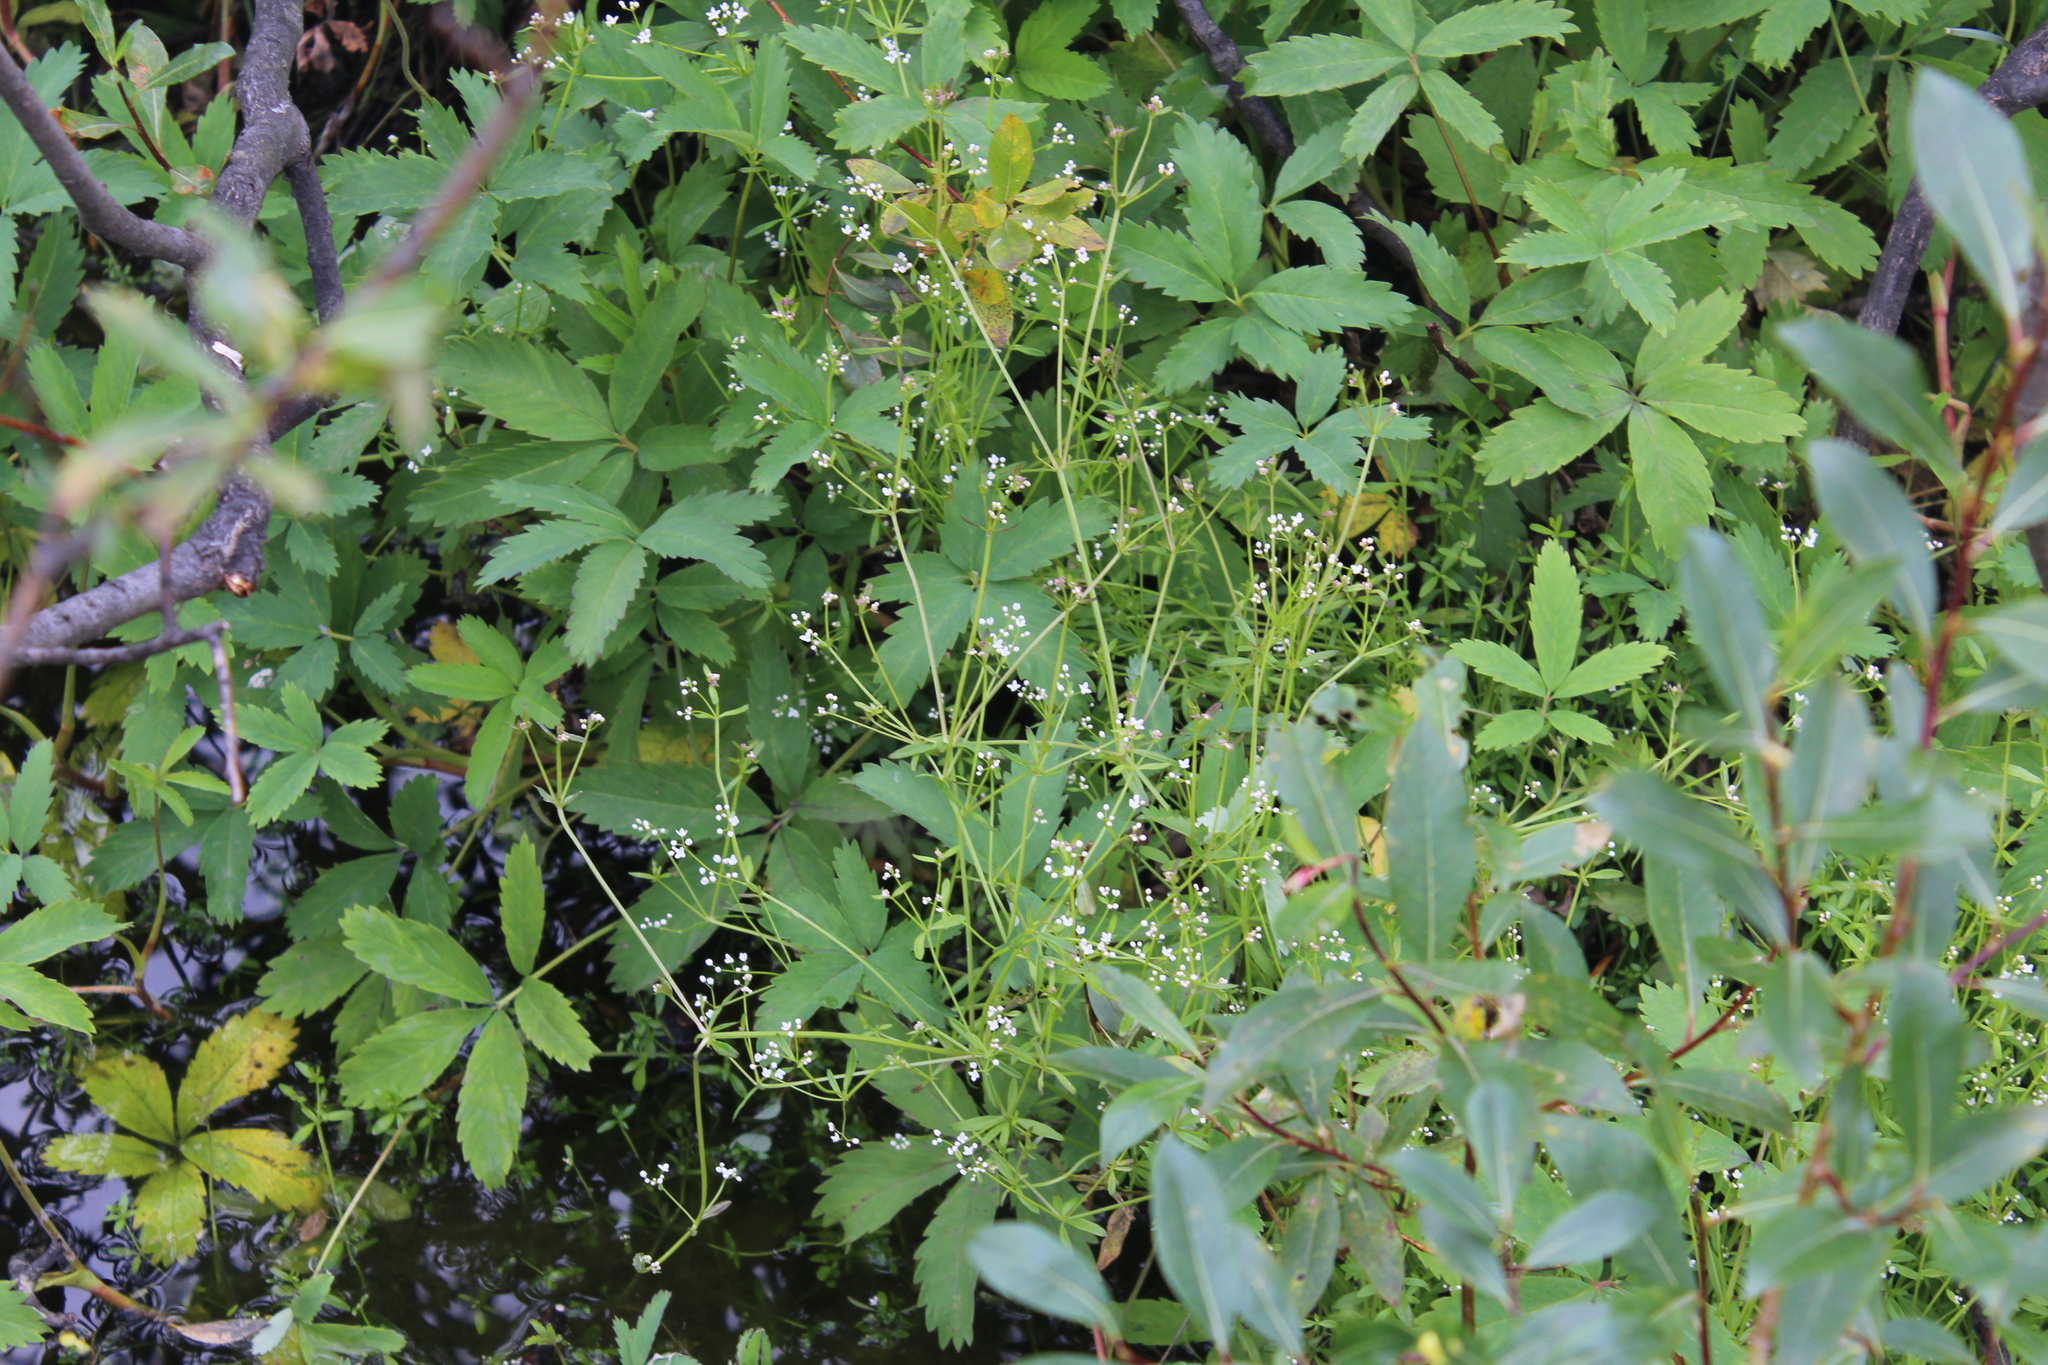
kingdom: Plantae
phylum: Tracheophyta
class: Magnoliopsida
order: Gentianales
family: Rubiaceae
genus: Galium
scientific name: Galium palustre
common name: Common marsh-bedstraw
